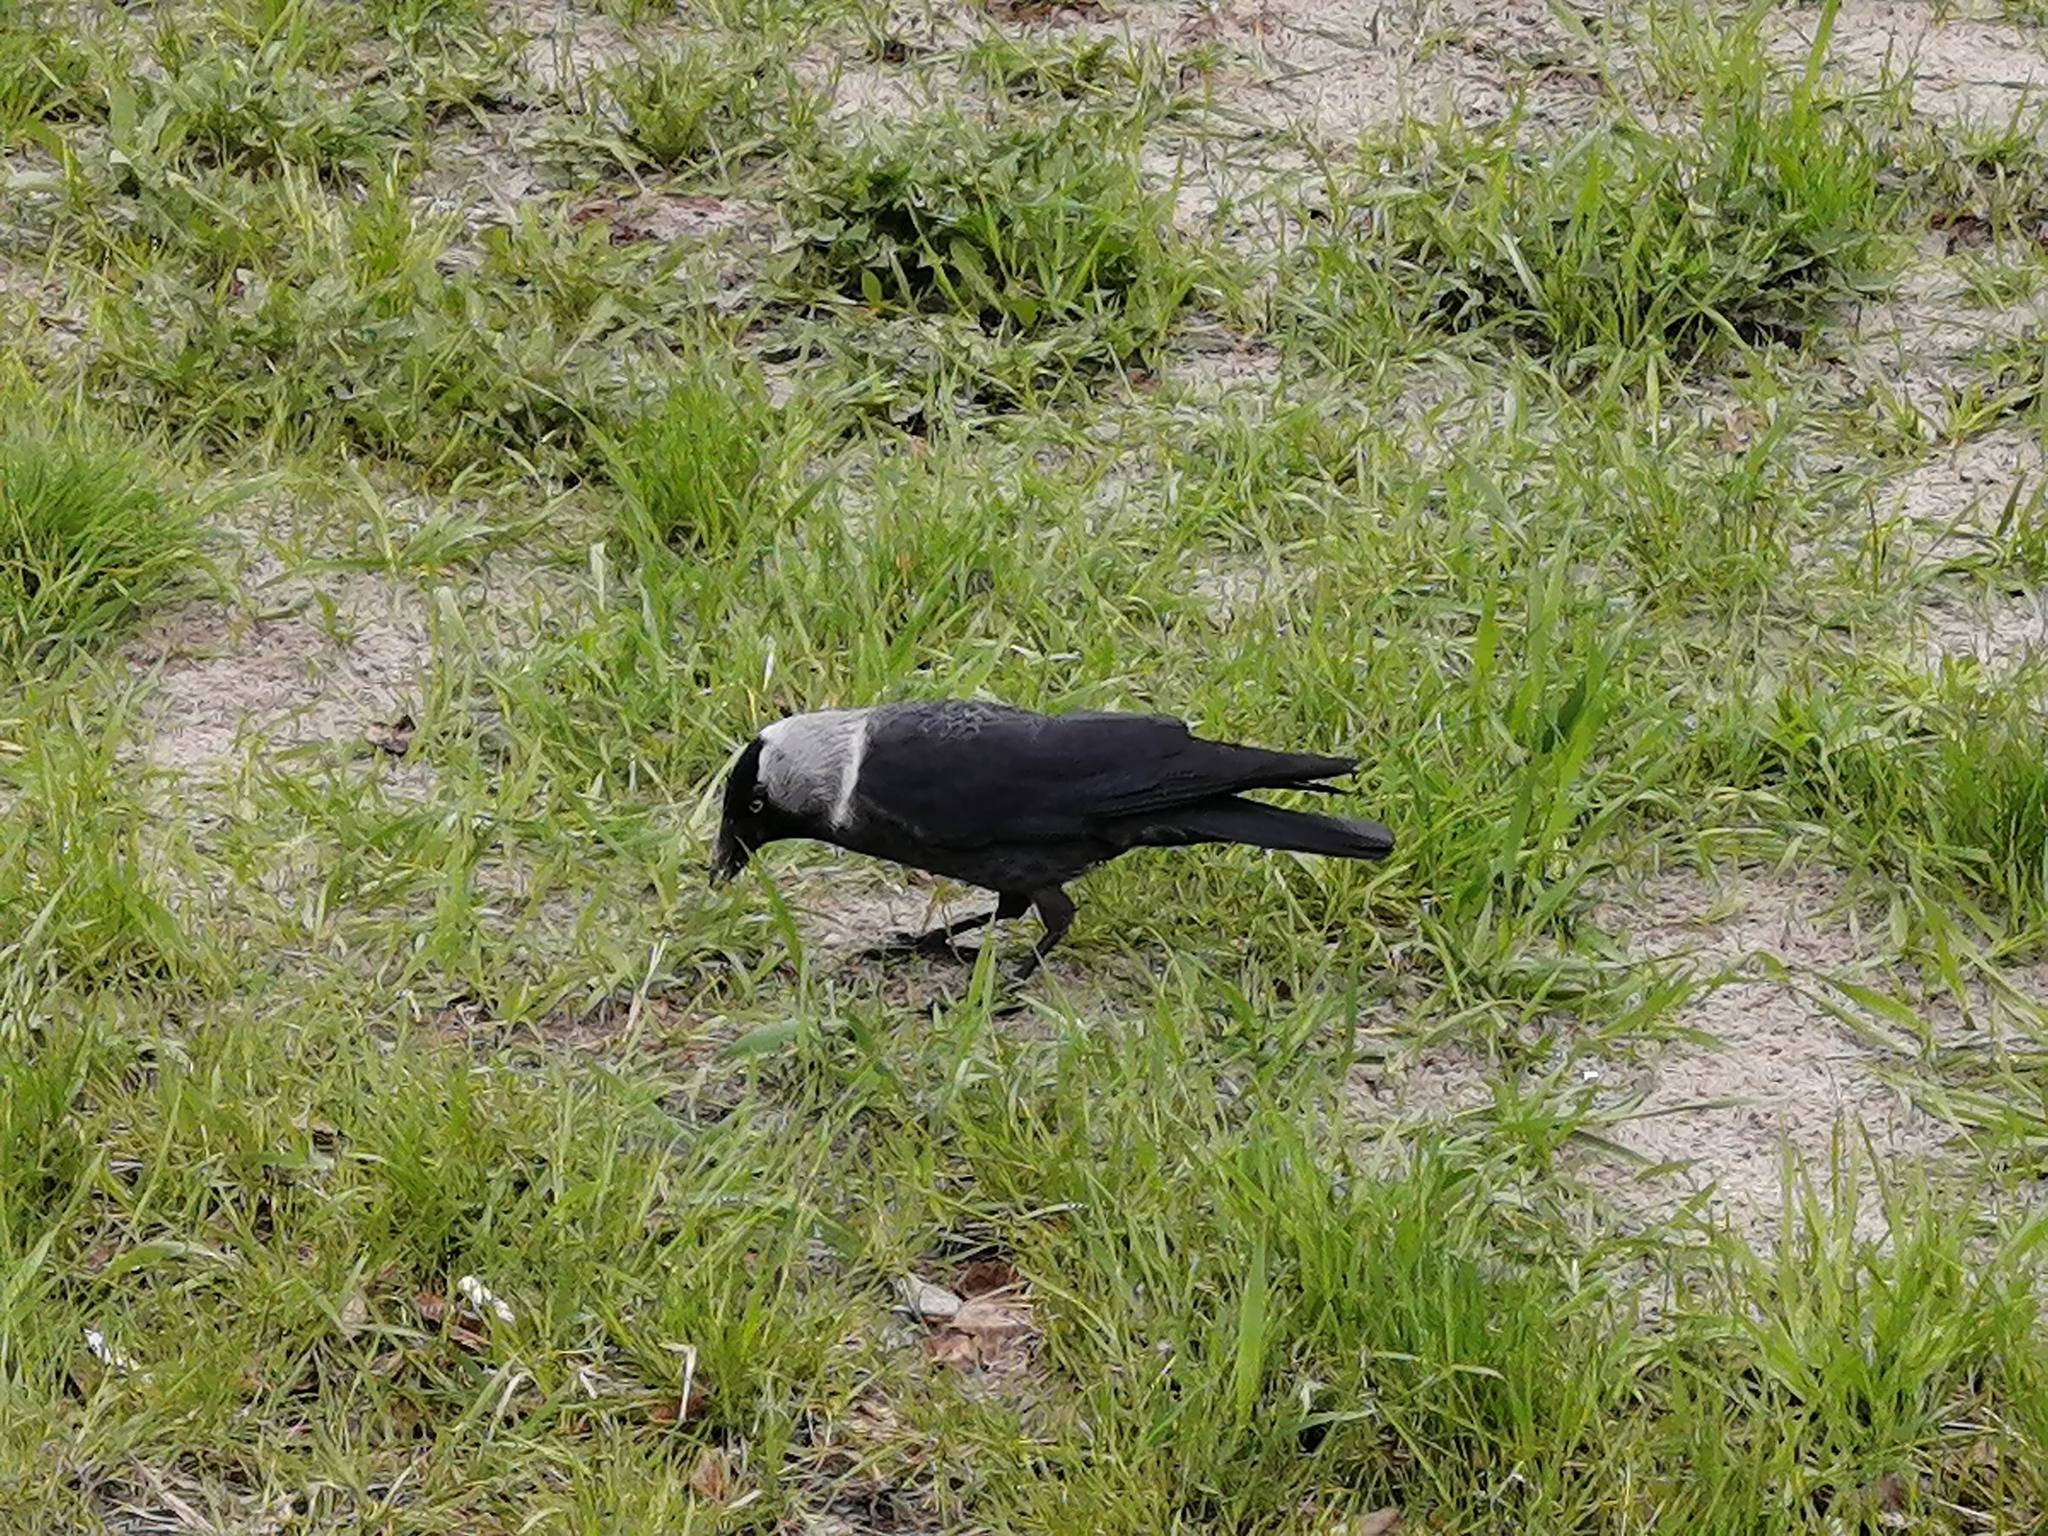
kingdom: Animalia
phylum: Chordata
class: Aves
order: Passeriformes
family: Corvidae
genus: Coloeus
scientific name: Coloeus monedula
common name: Western jackdaw
